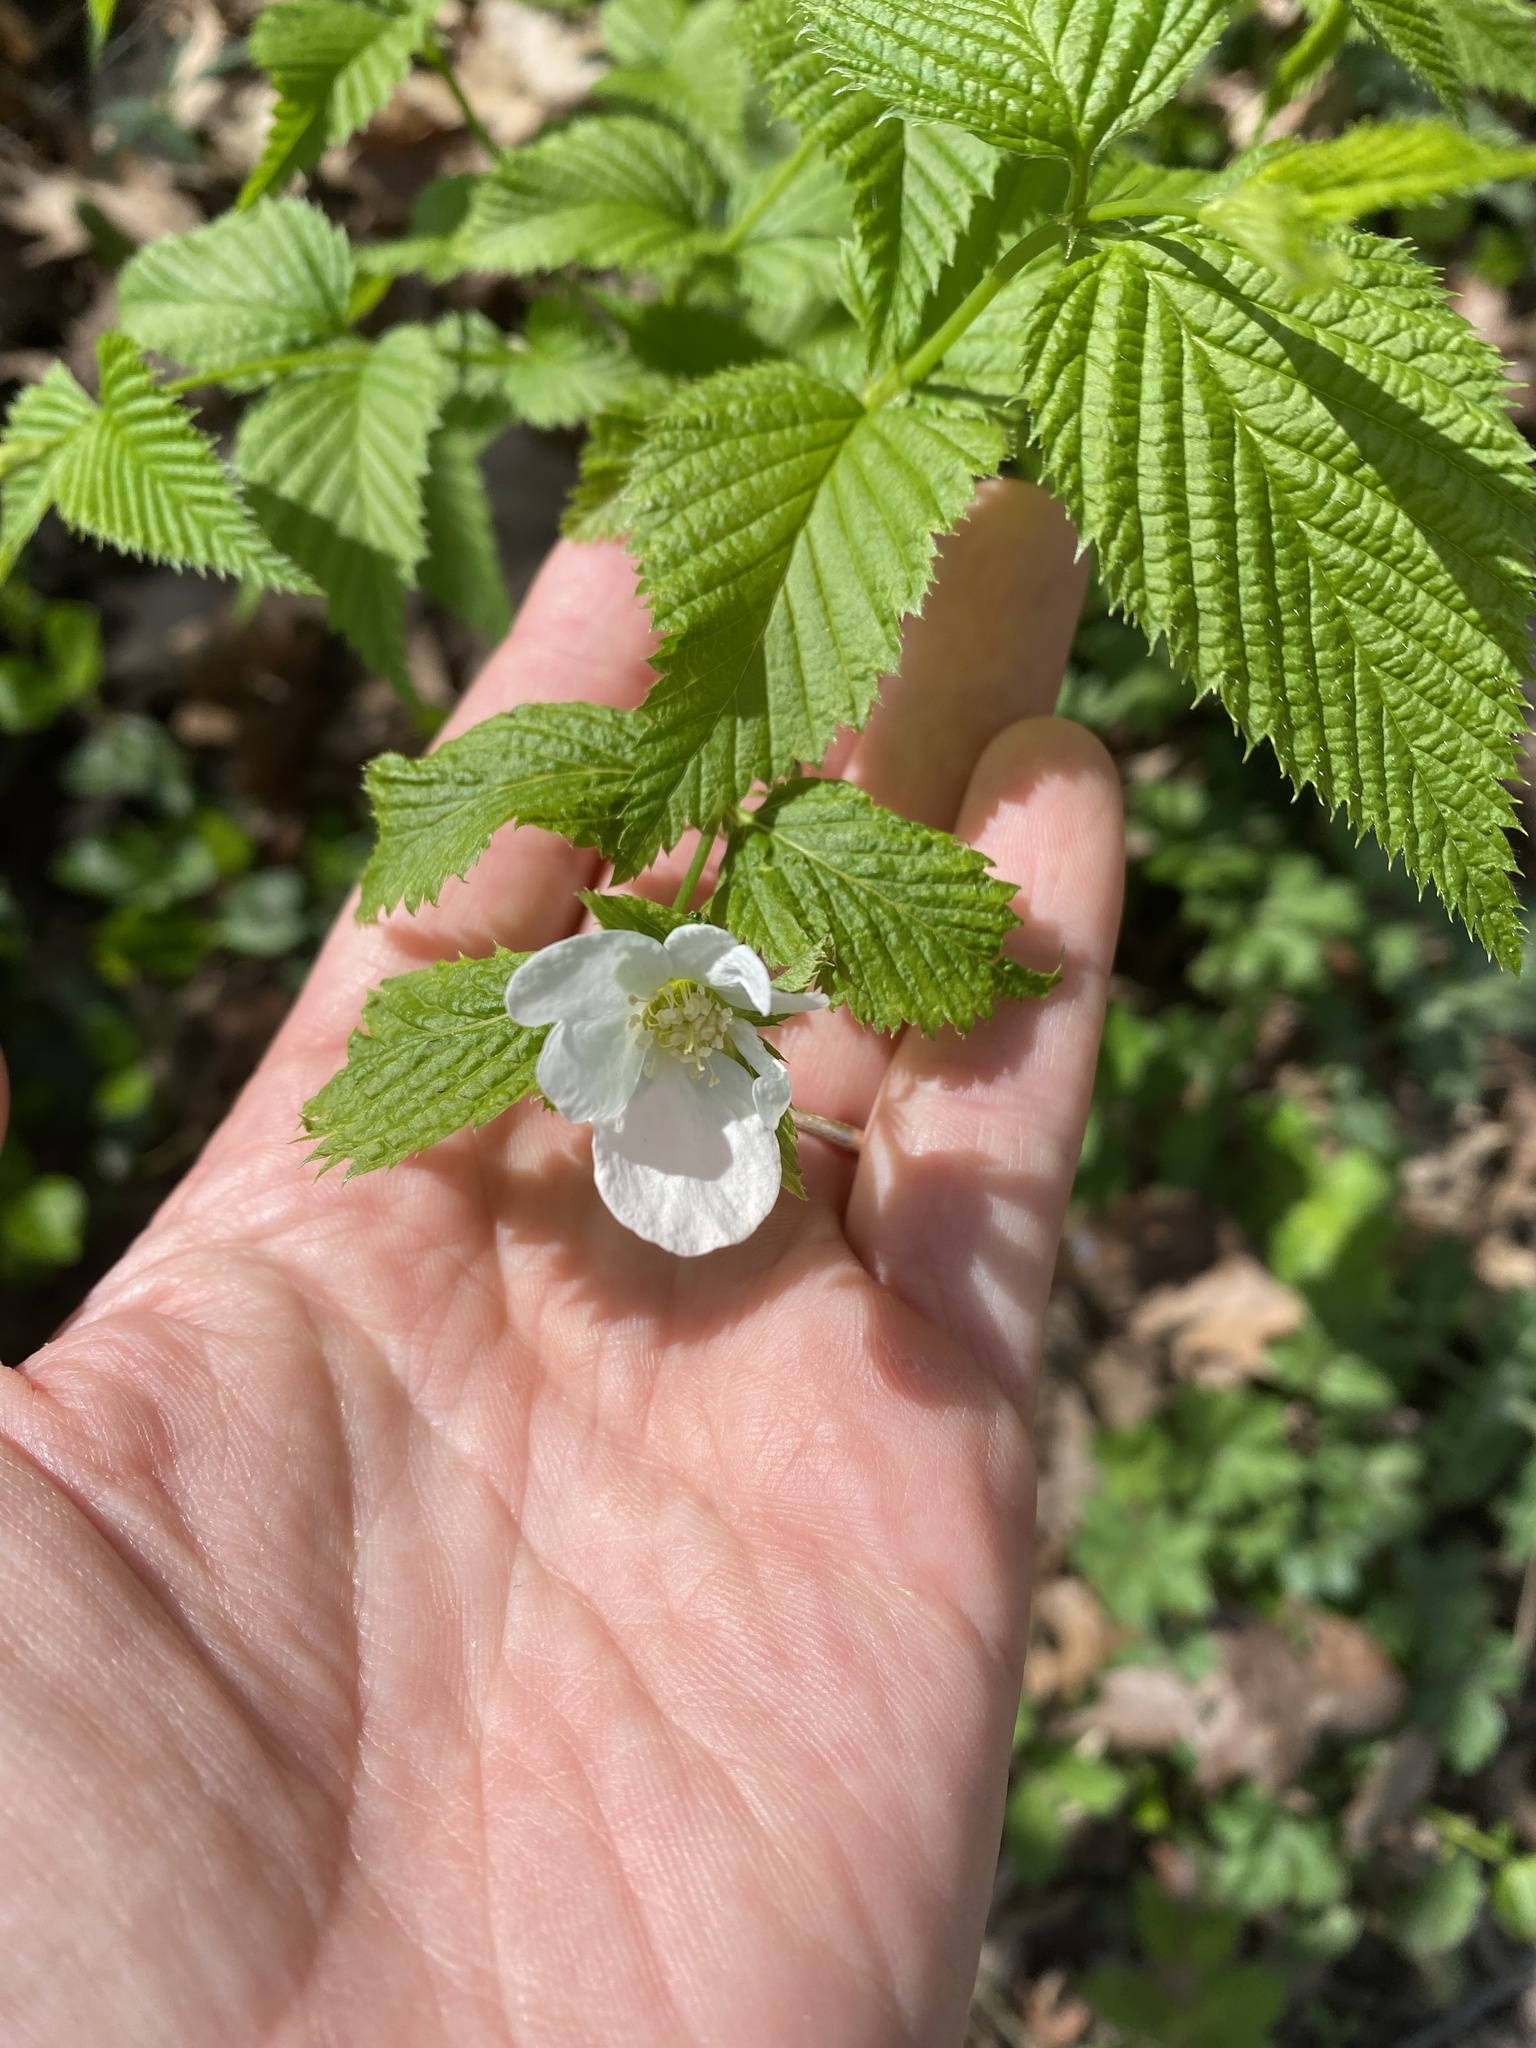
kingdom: Plantae
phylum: Tracheophyta
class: Magnoliopsida
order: Rosales
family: Rosaceae
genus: Rhodotypos
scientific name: Rhodotypos scandens
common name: Jetbead
